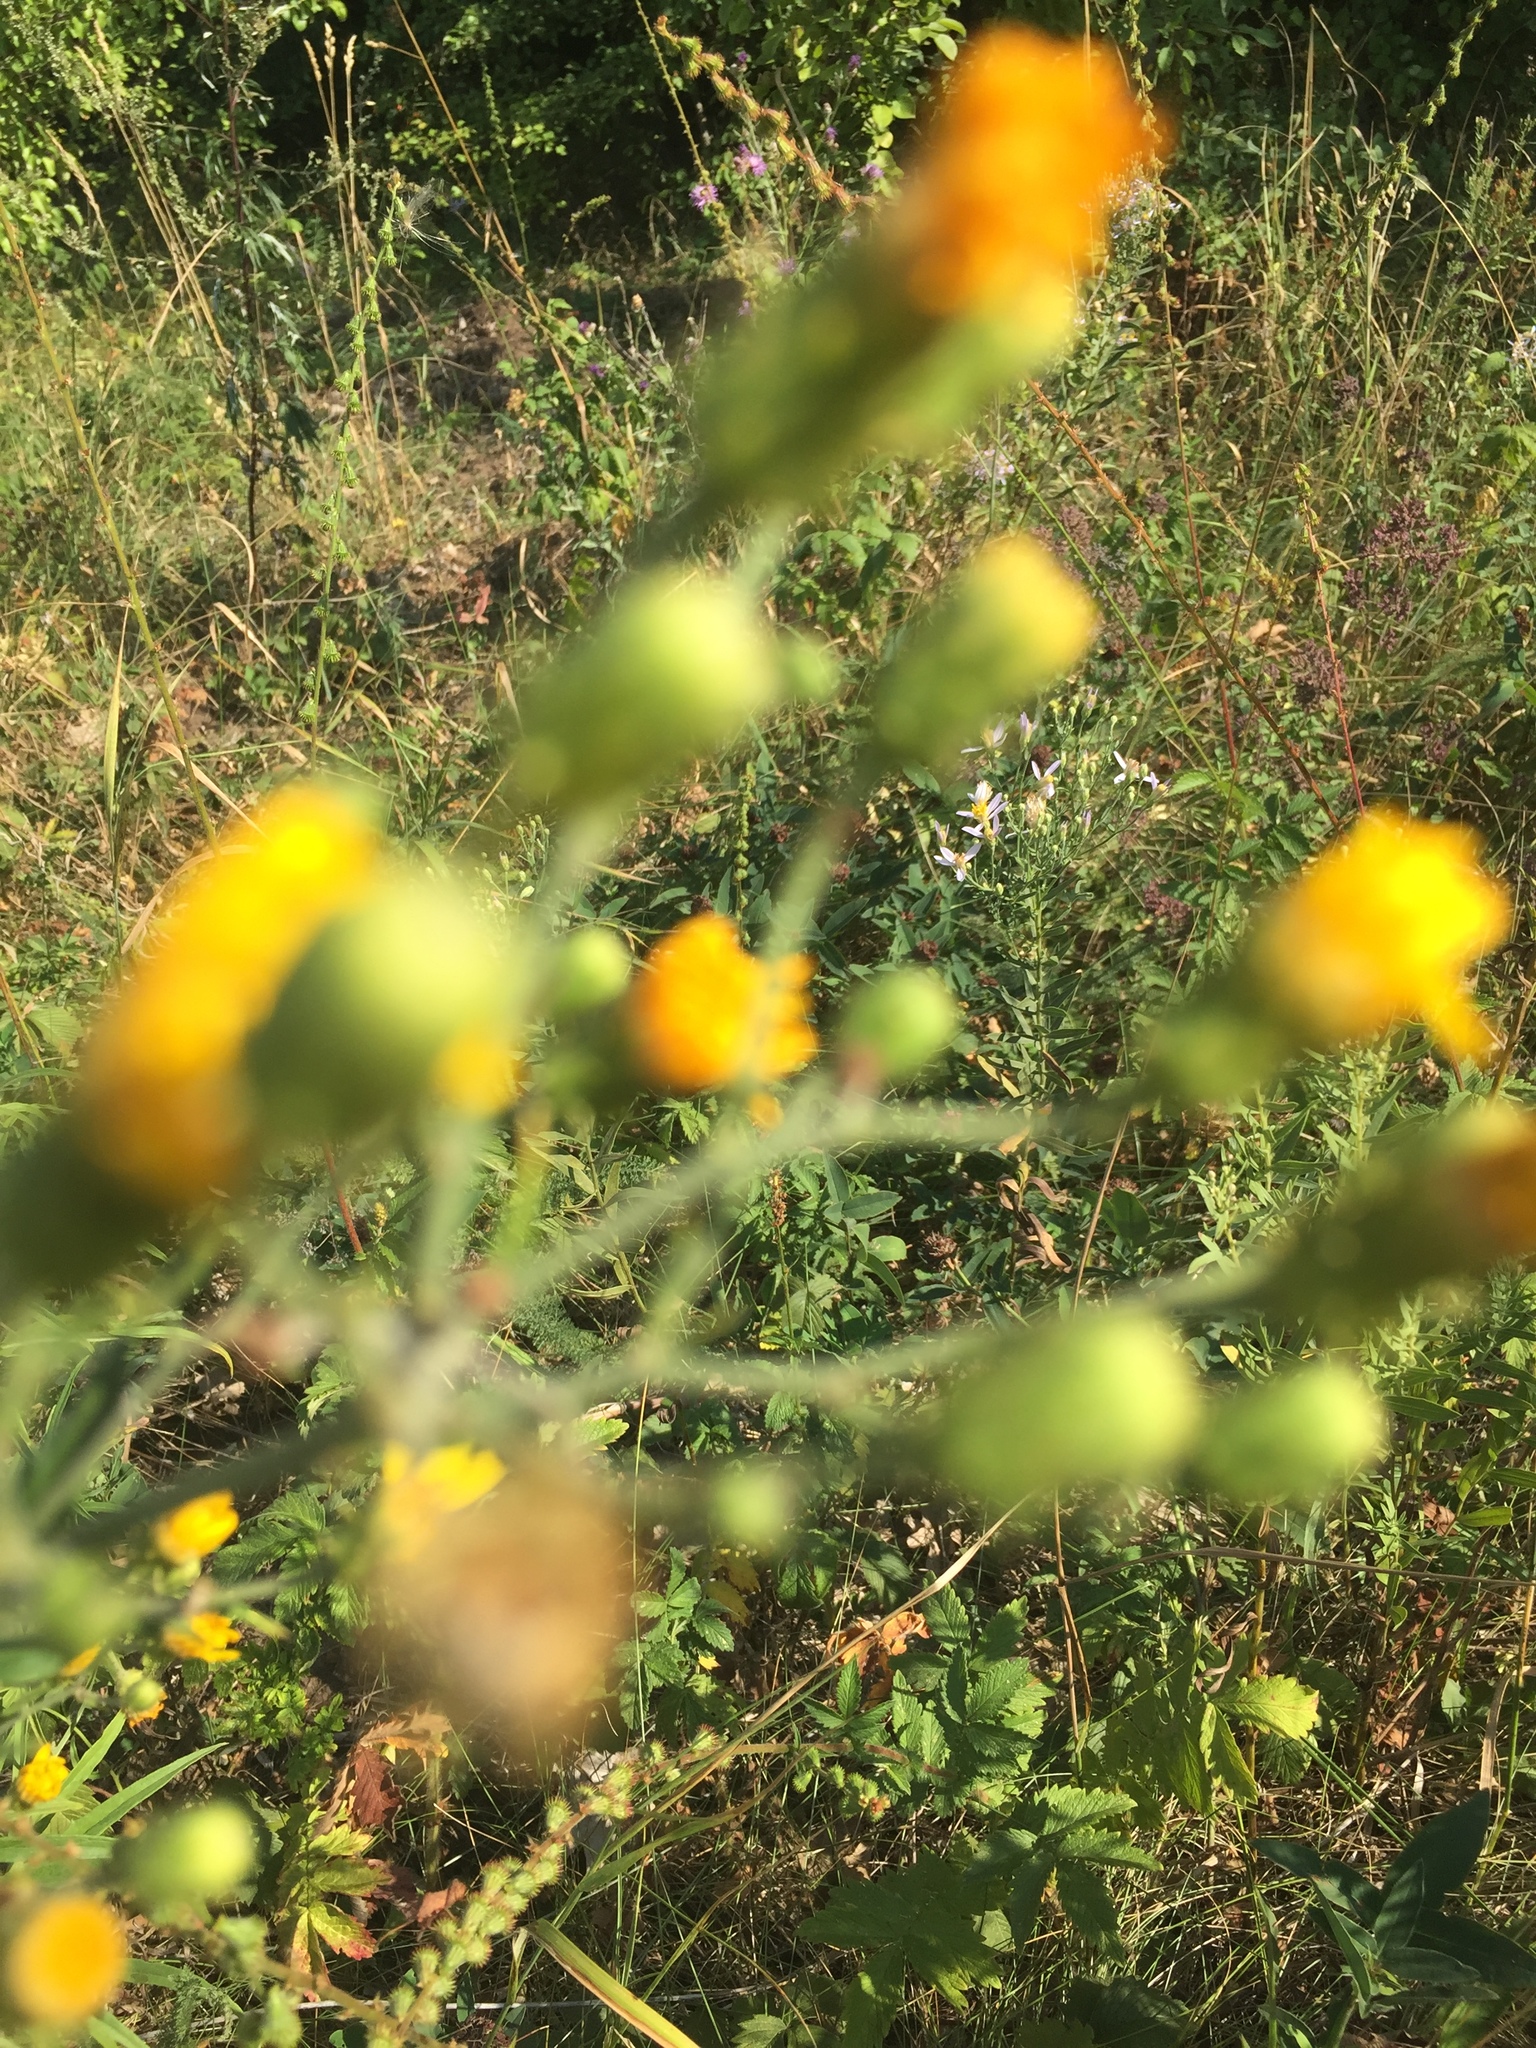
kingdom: Plantae
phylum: Tracheophyta
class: Magnoliopsida
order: Asterales
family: Asteraceae
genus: Hieracium
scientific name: Hieracium umbellatum
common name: Northern hawkweed
